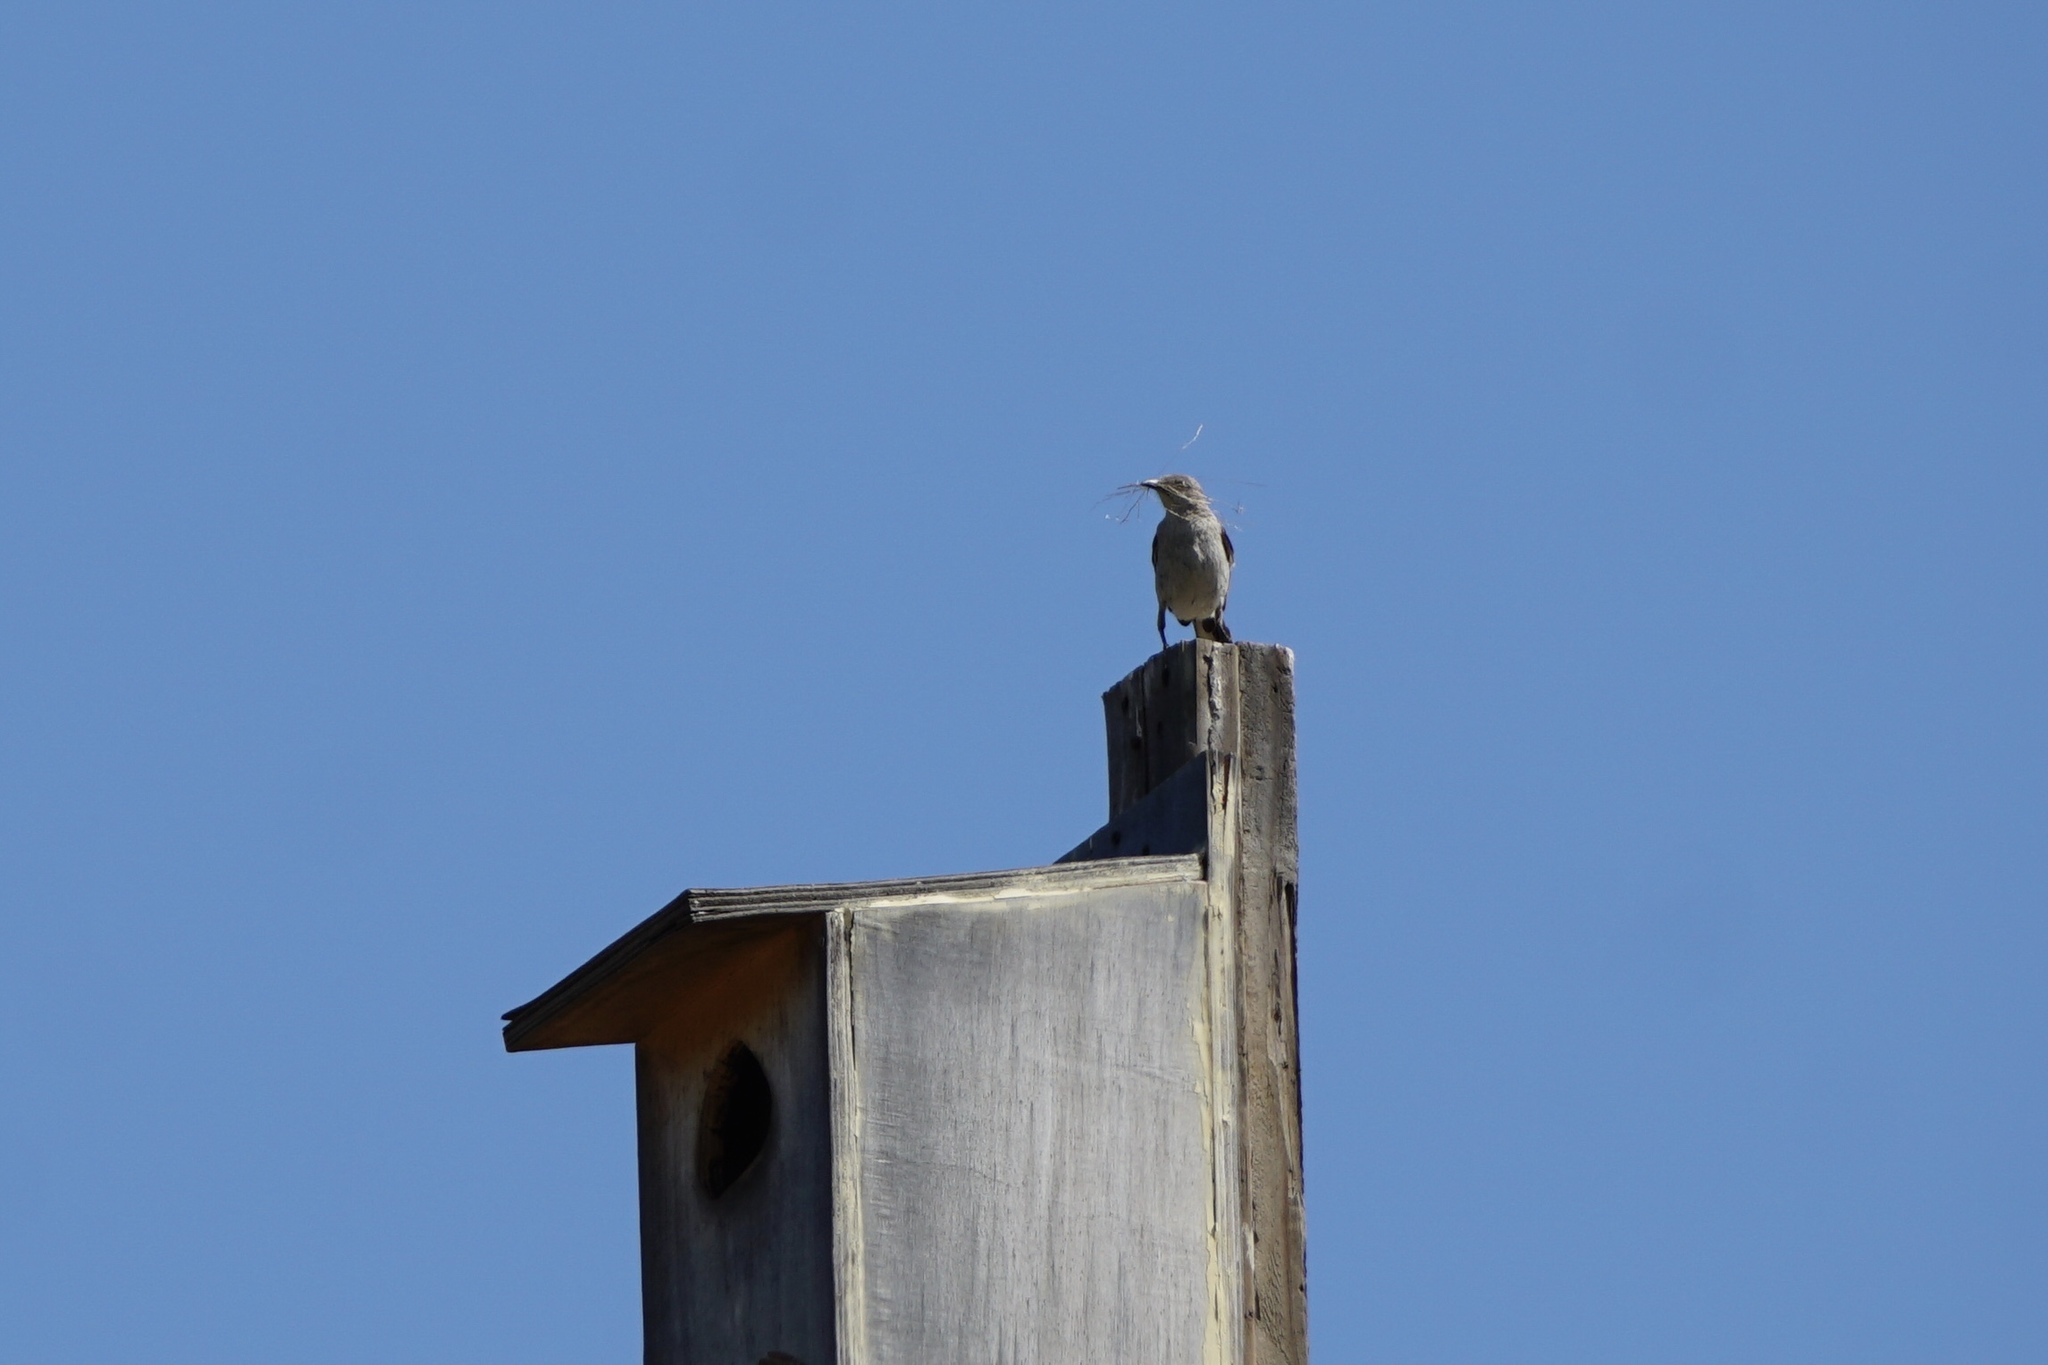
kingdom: Animalia
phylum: Chordata
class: Aves
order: Passeriformes
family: Mimidae
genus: Mimus
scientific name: Mimus polyglottos
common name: Northern mockingbird
